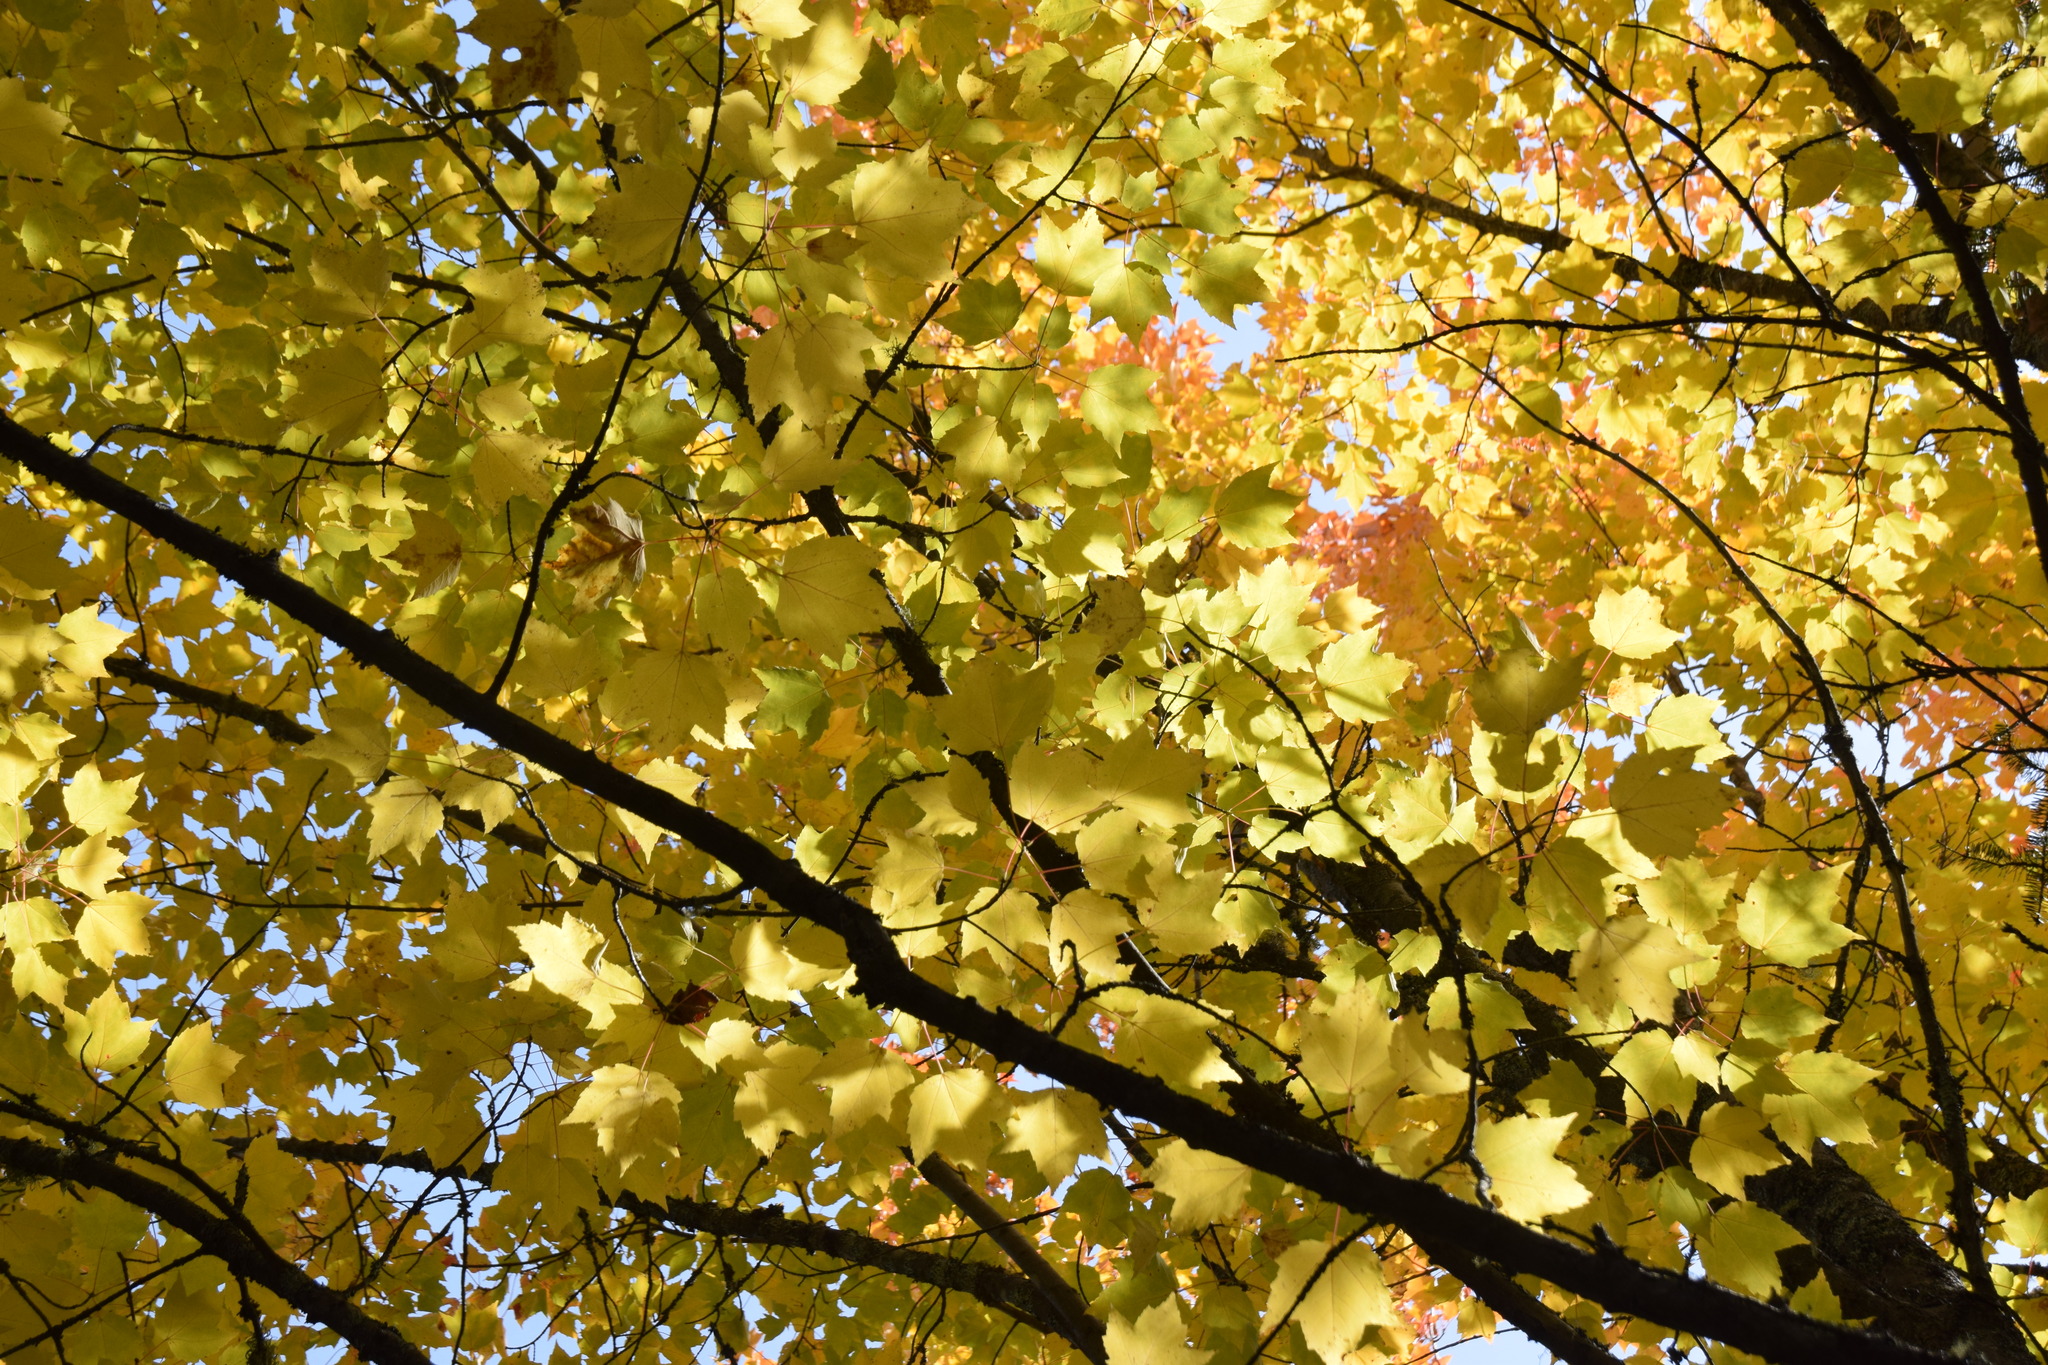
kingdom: Plantae
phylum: Tracheophyta
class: Magnoliopsida
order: Sapindales
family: Sapindaceae
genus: Acer
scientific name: Acer rubrum
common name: Red maple
